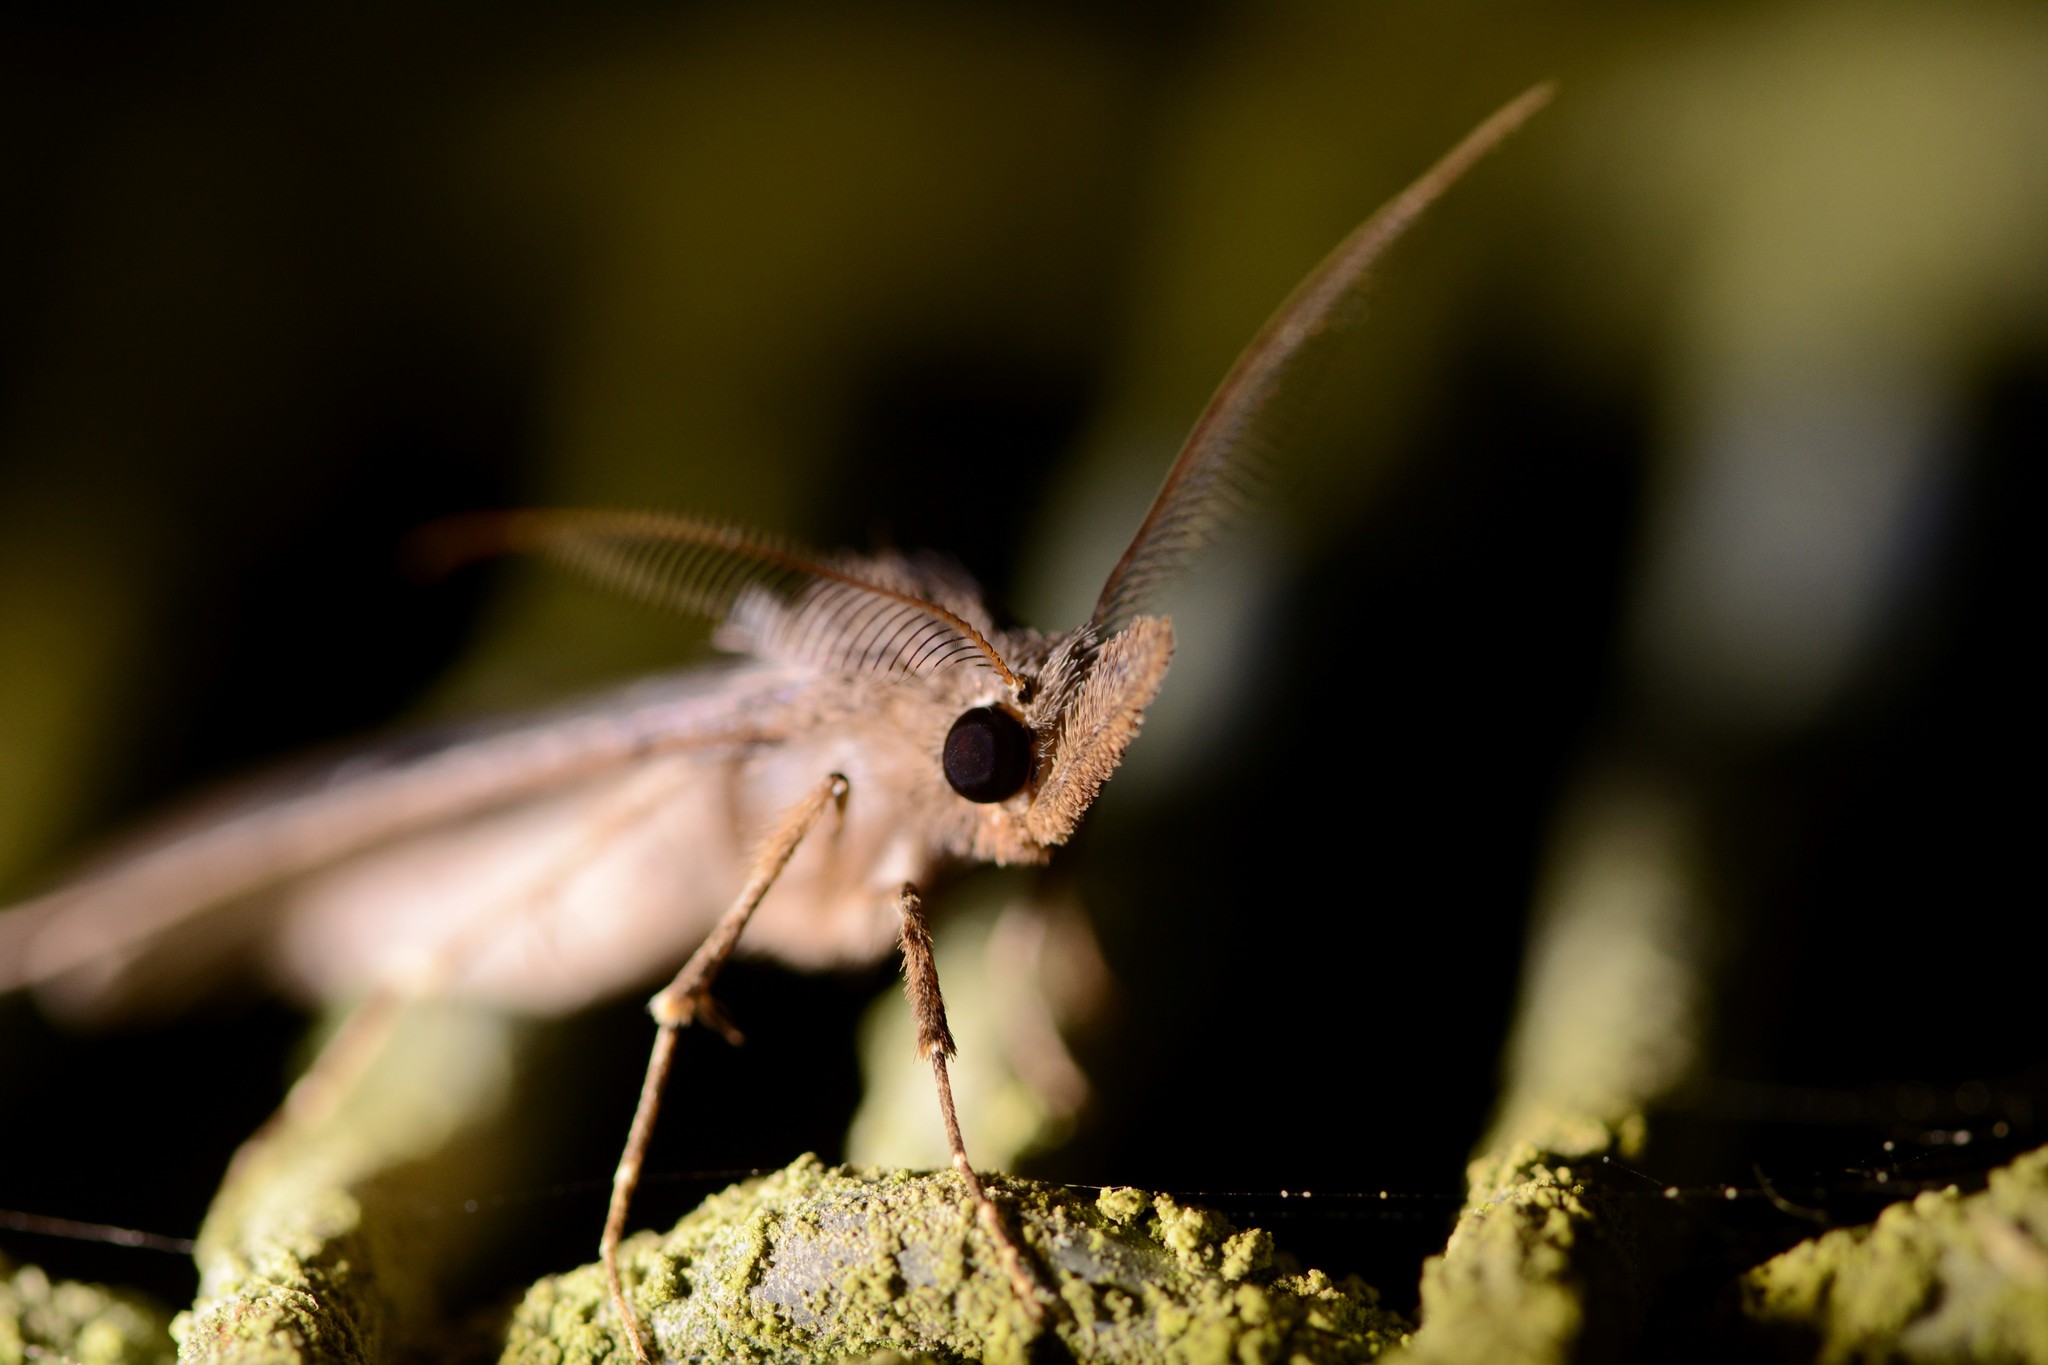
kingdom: Animalia
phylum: Arthropoda
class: Insecta
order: Lepidoptera
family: Erebidae
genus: Rhapsa
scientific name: Rhapsa scotosialis
